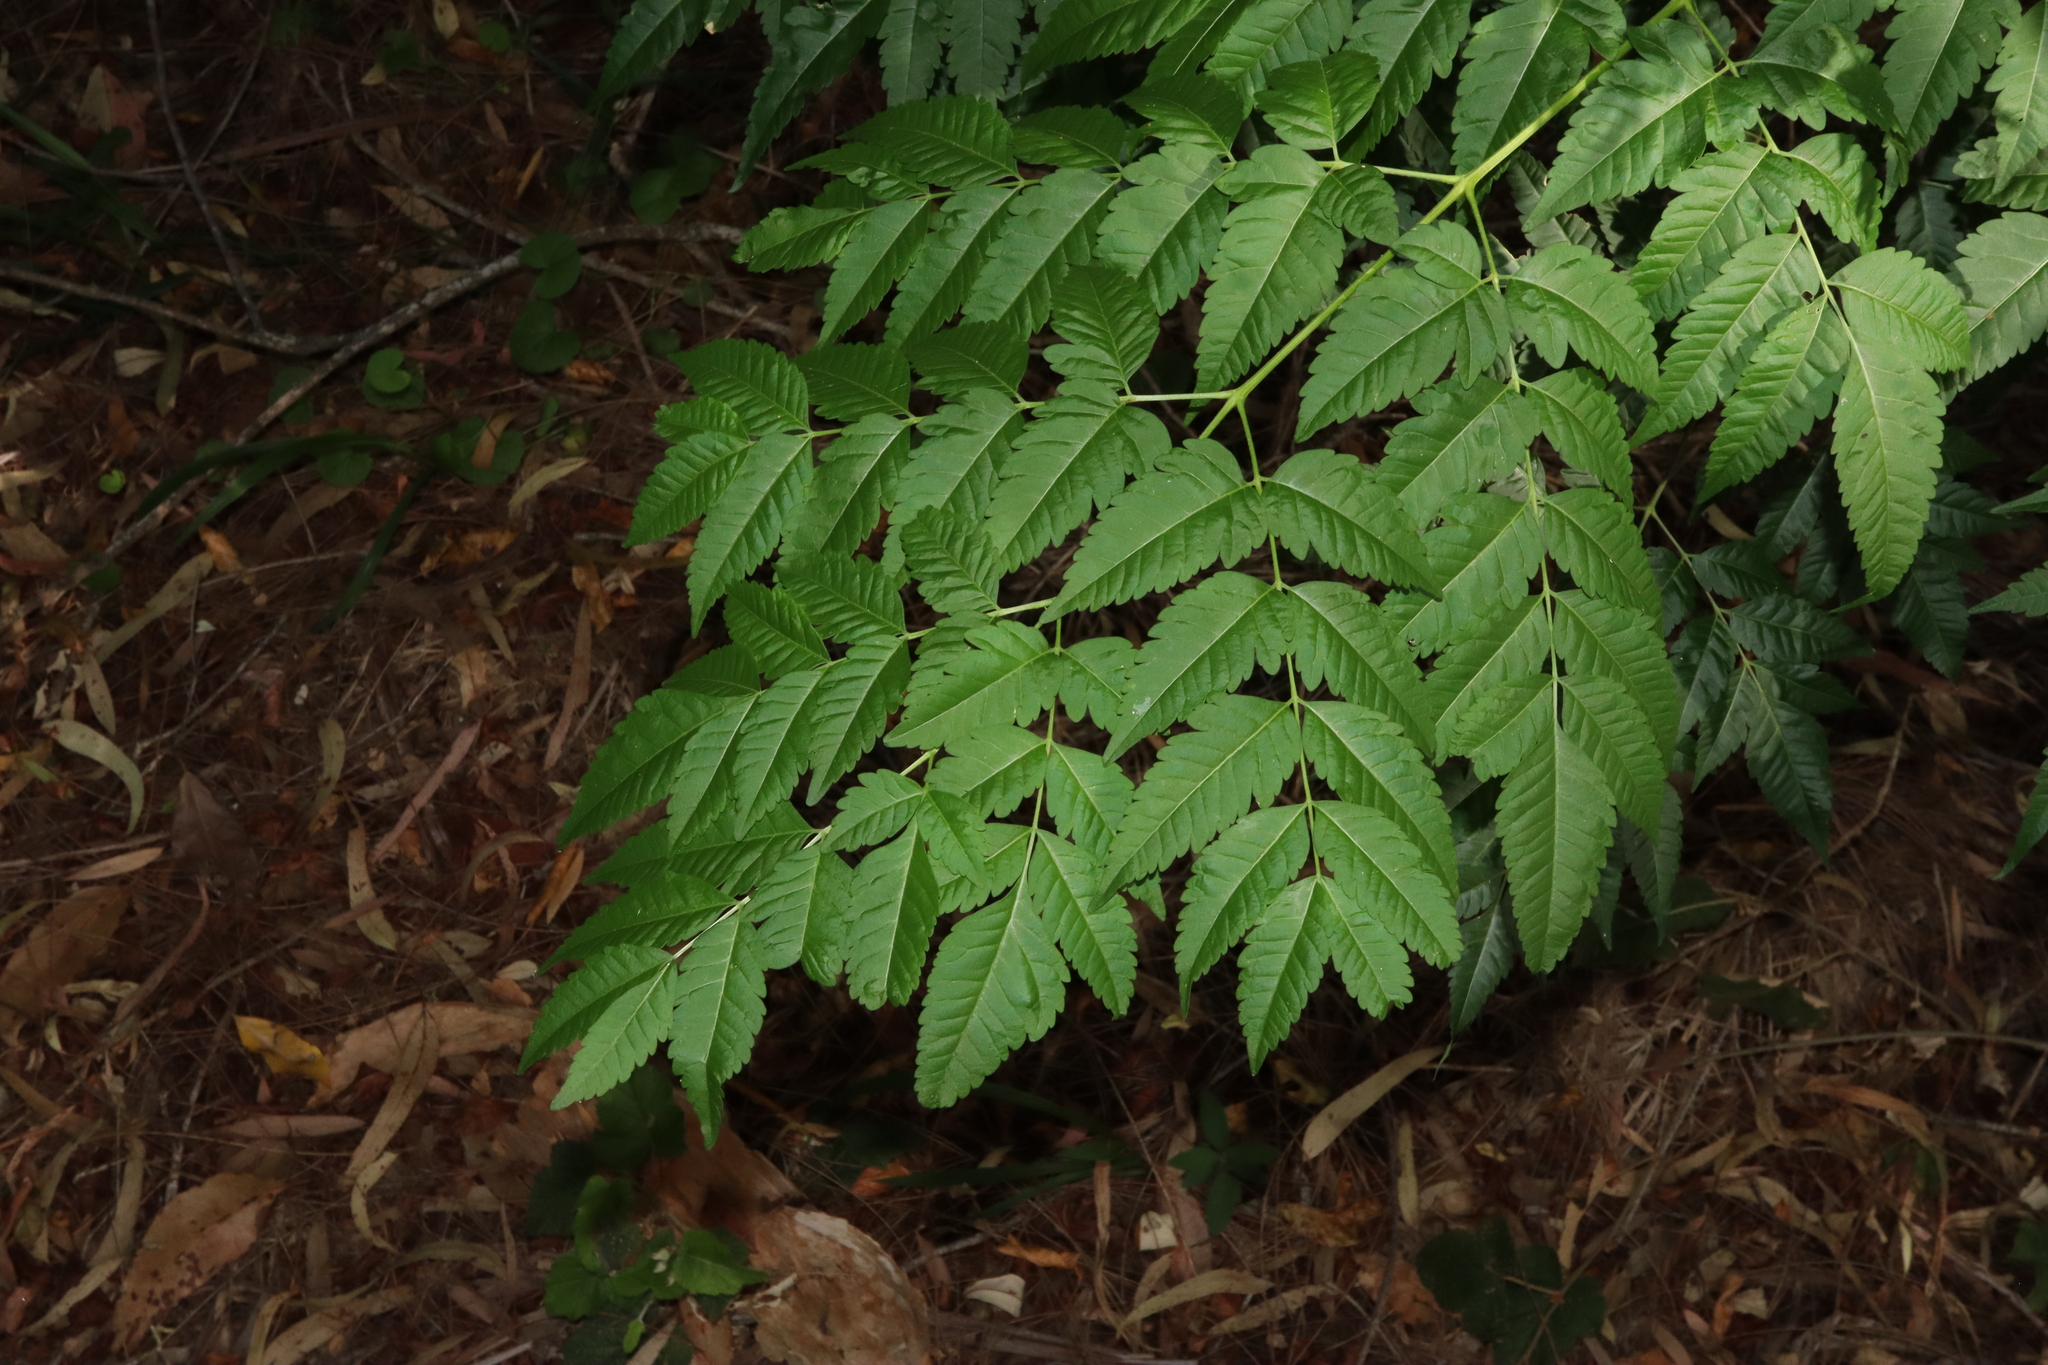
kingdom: Plantae
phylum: Tracheophyta
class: Magnoliopsida
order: Sapindales
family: Meliaceae
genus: Melia
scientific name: Melia azedarach
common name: Chinaberrytree
